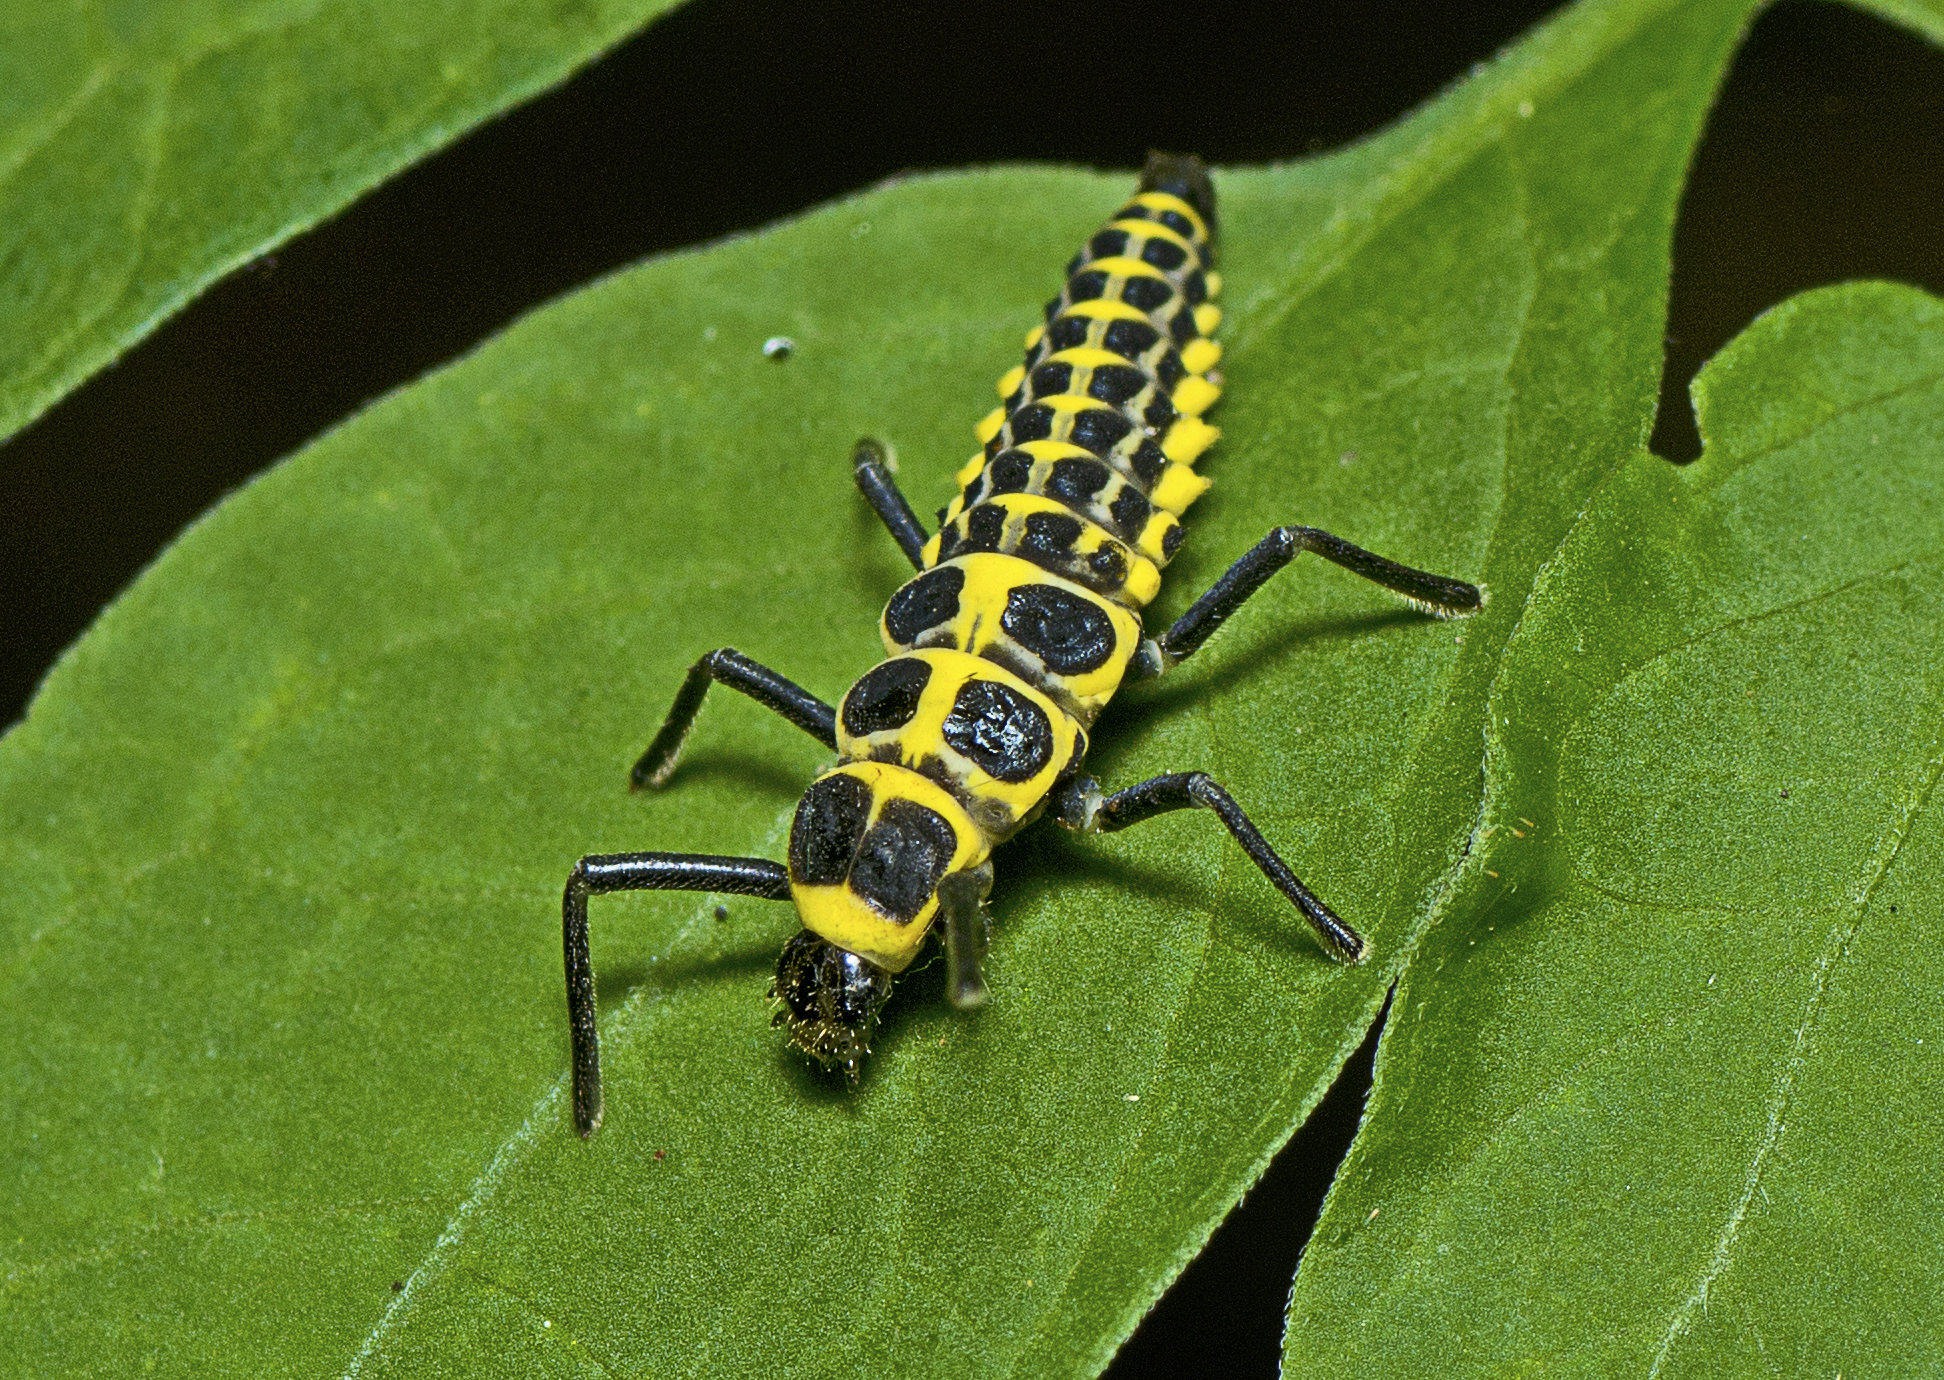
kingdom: Animalia
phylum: Arthropoda
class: Insecta
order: Coleoptera
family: Coccinellidae
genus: Cleobora
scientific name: Cleobora
